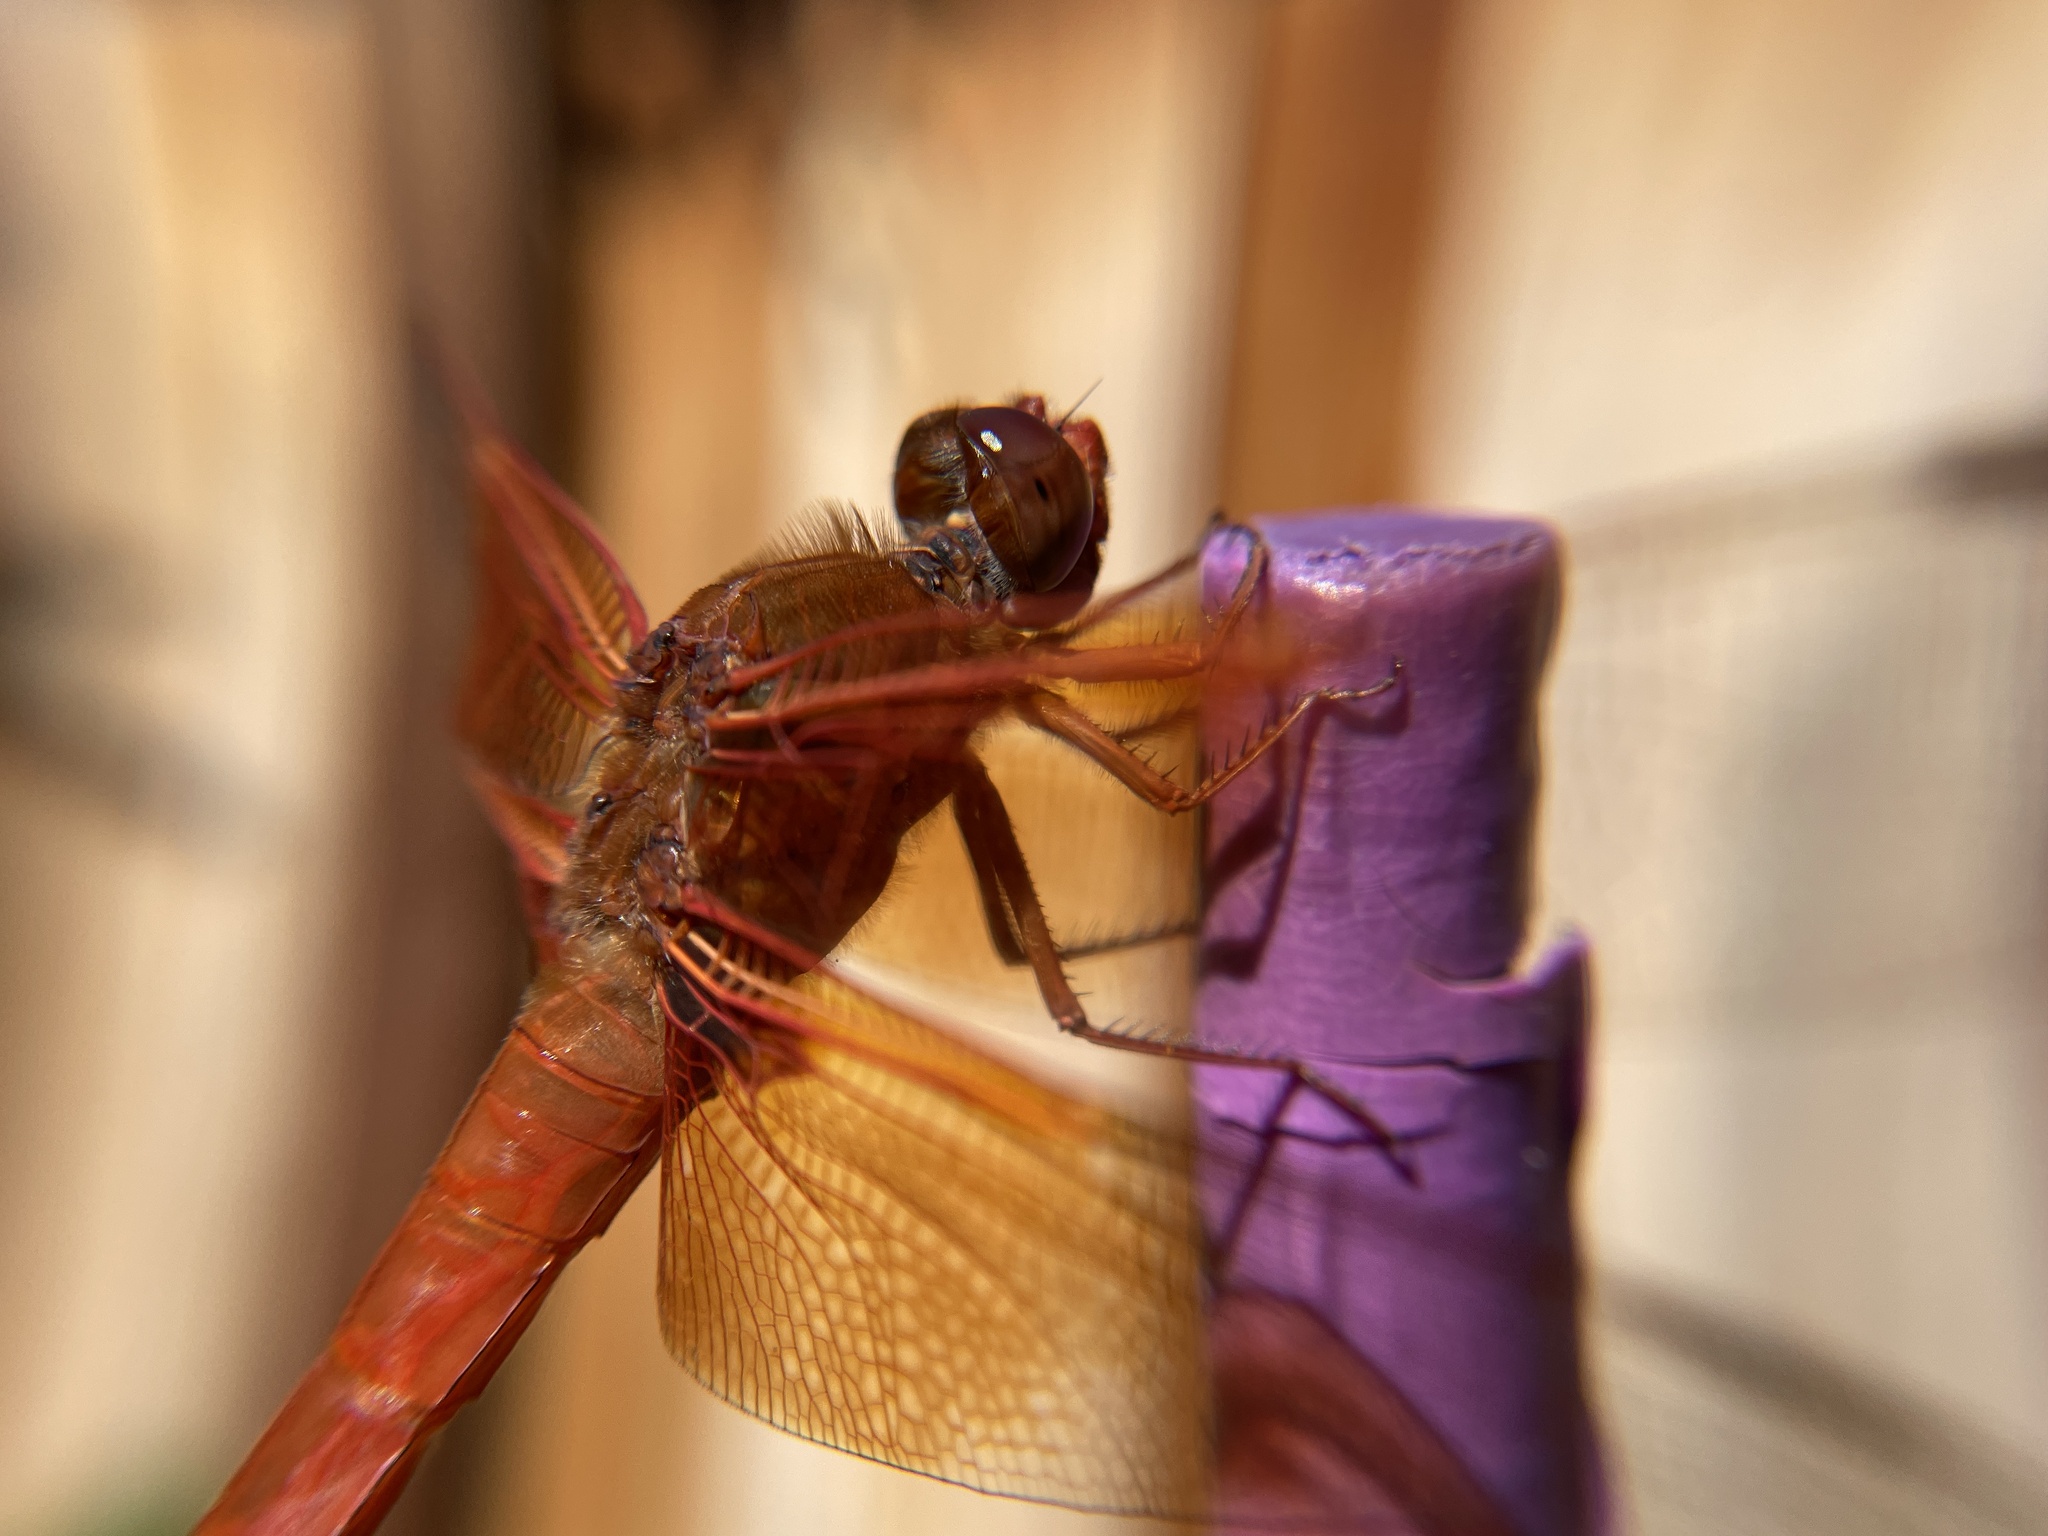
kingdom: Animalia
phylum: Arthropoda
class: Insecta
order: Odonata
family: Libellulidae
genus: Libellula
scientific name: Libellula saturata
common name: Flame skimmer
